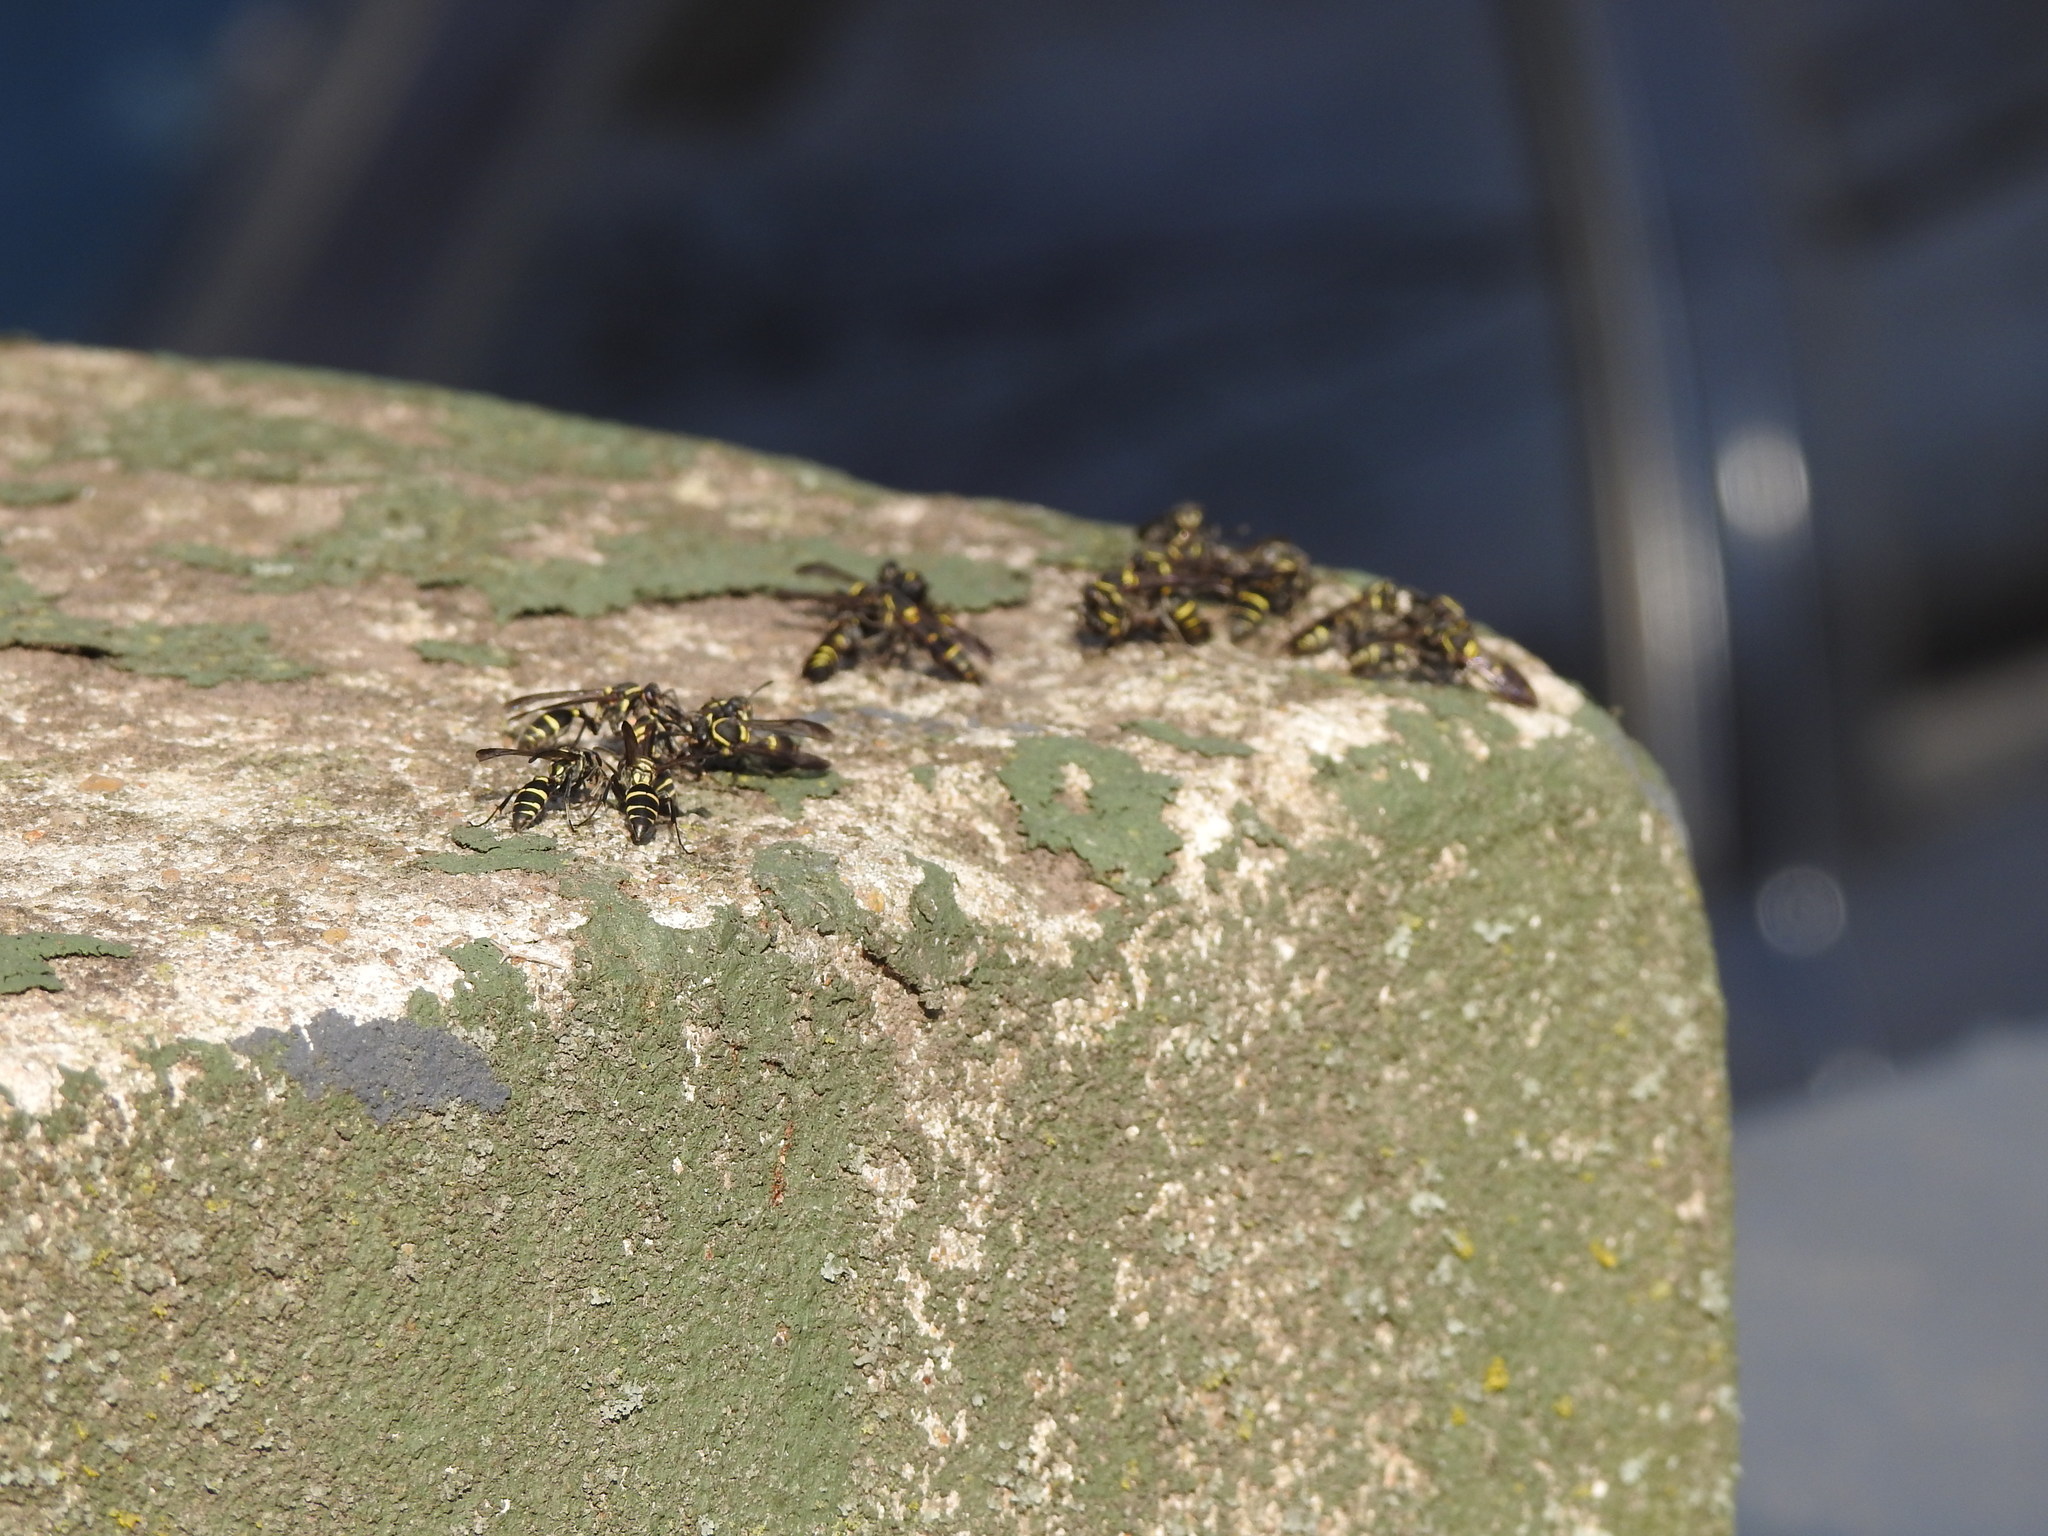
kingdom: Animalia
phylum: Arthropoda
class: Insecta
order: Hymenoptera
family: Eumenidae
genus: Polybia
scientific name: Polybia occidentalis
